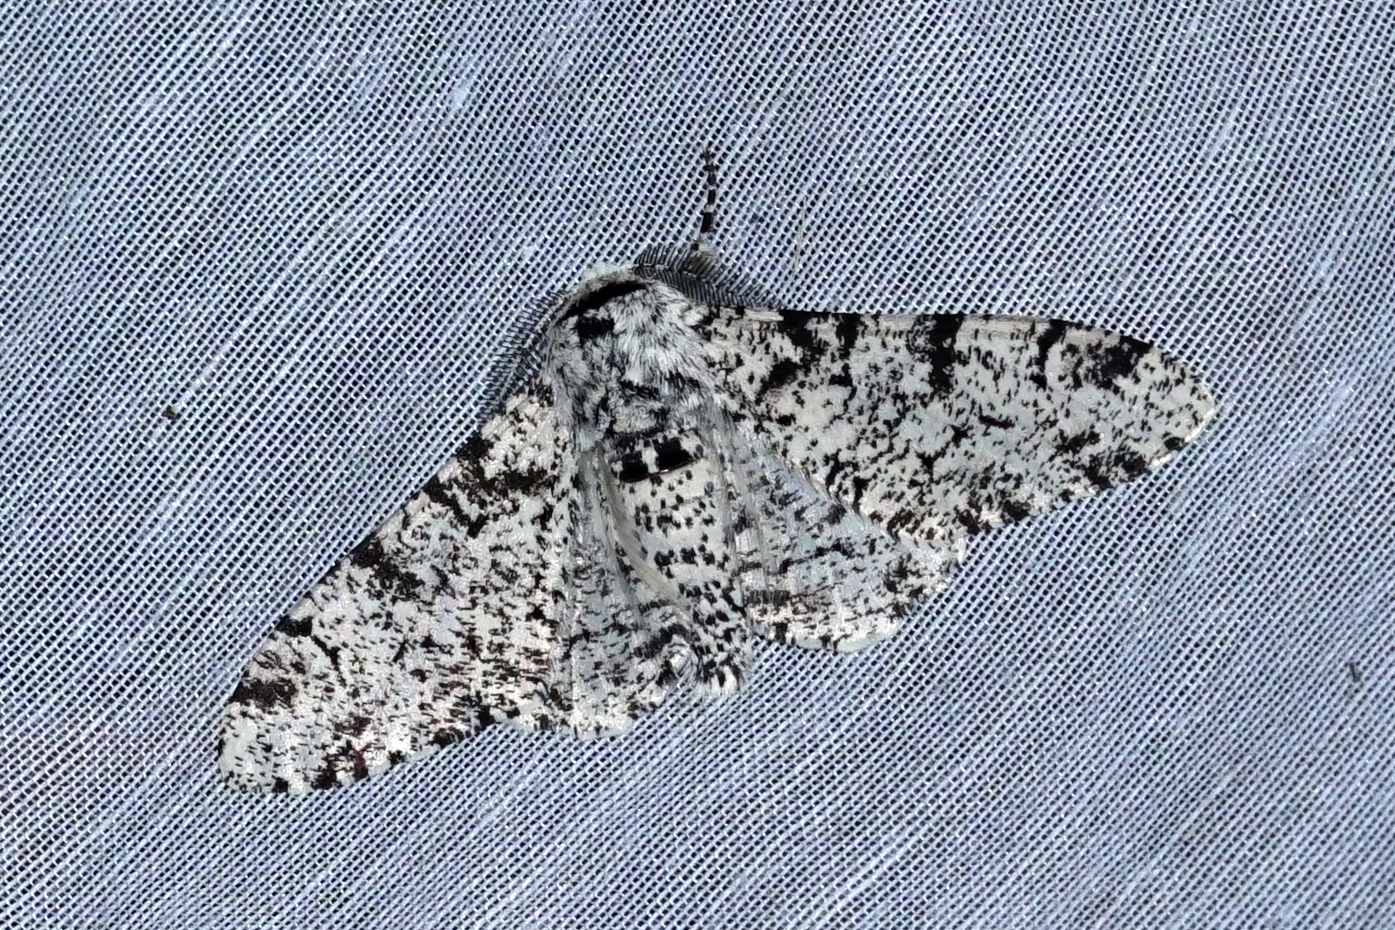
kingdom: Animalia
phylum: Arthropoda
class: Insecta
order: Lepidoptera
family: Geometridae
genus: Biston
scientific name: Biston betularia
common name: Peppered moth
